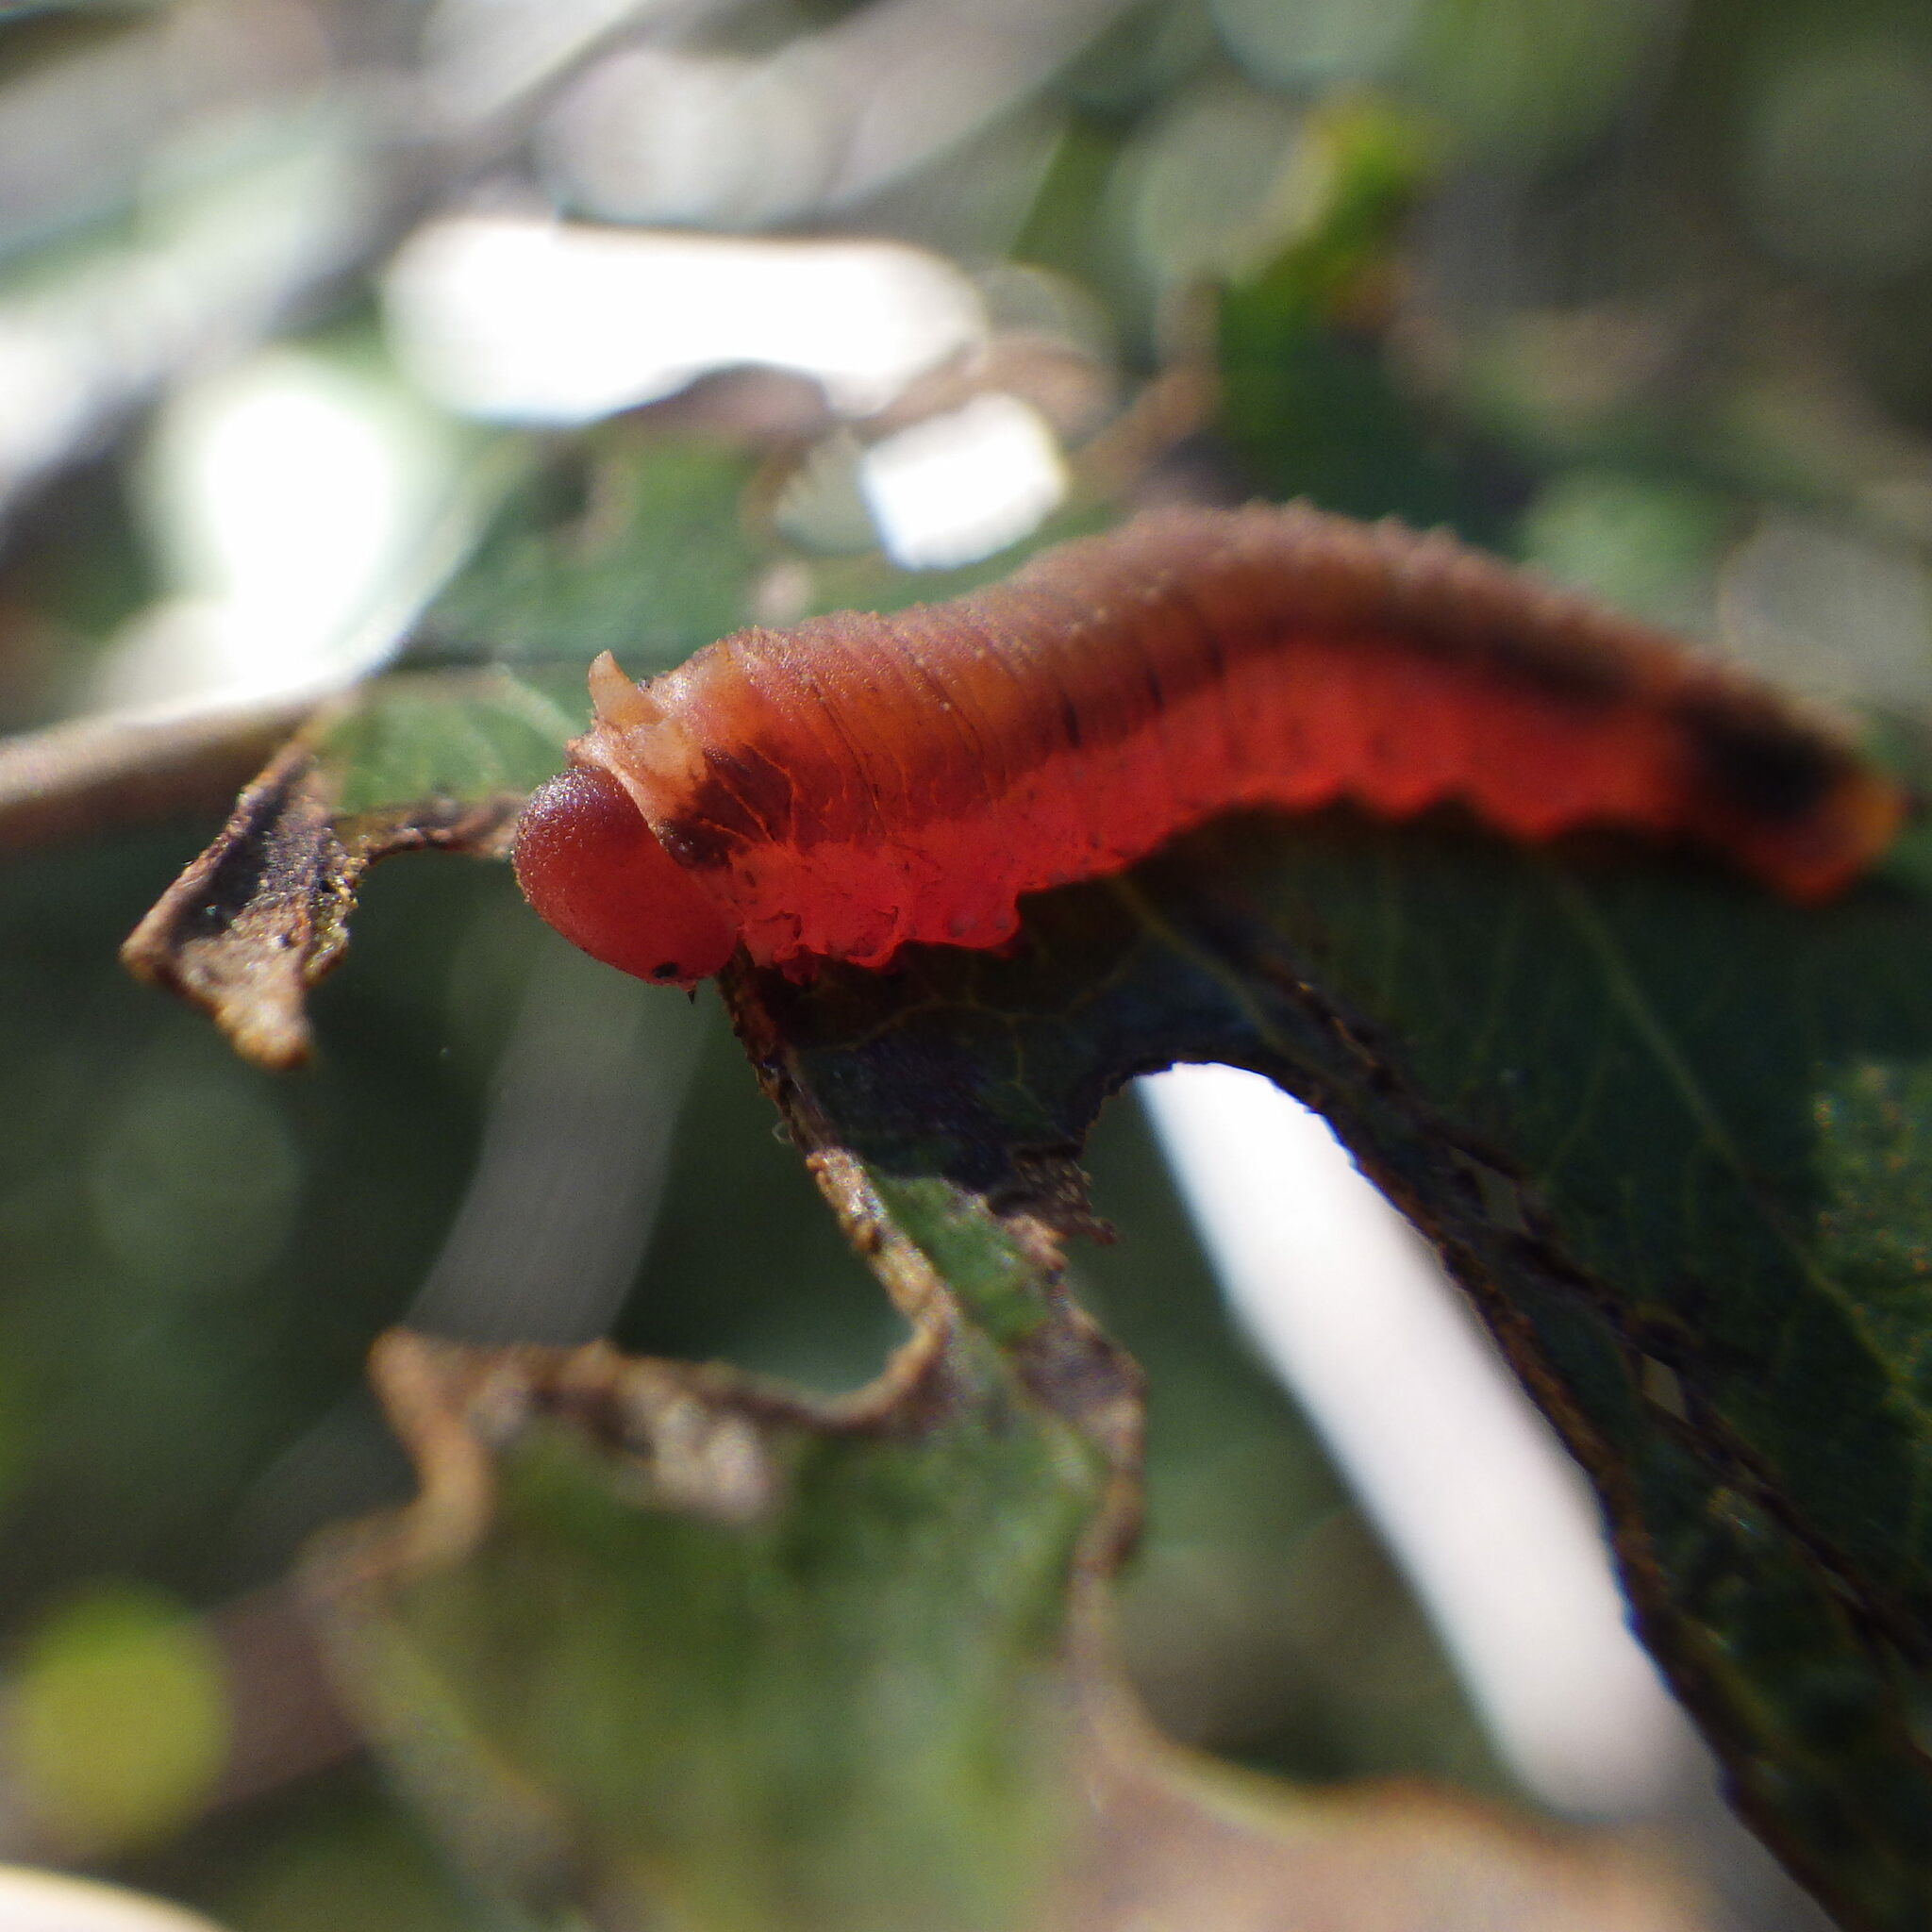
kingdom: Animalia
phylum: Arthropoda
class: Insecta
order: Hymenoptera
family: Tenthredinidae
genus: Dimorphopteryx
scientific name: Dimorphopteryx abnormis
